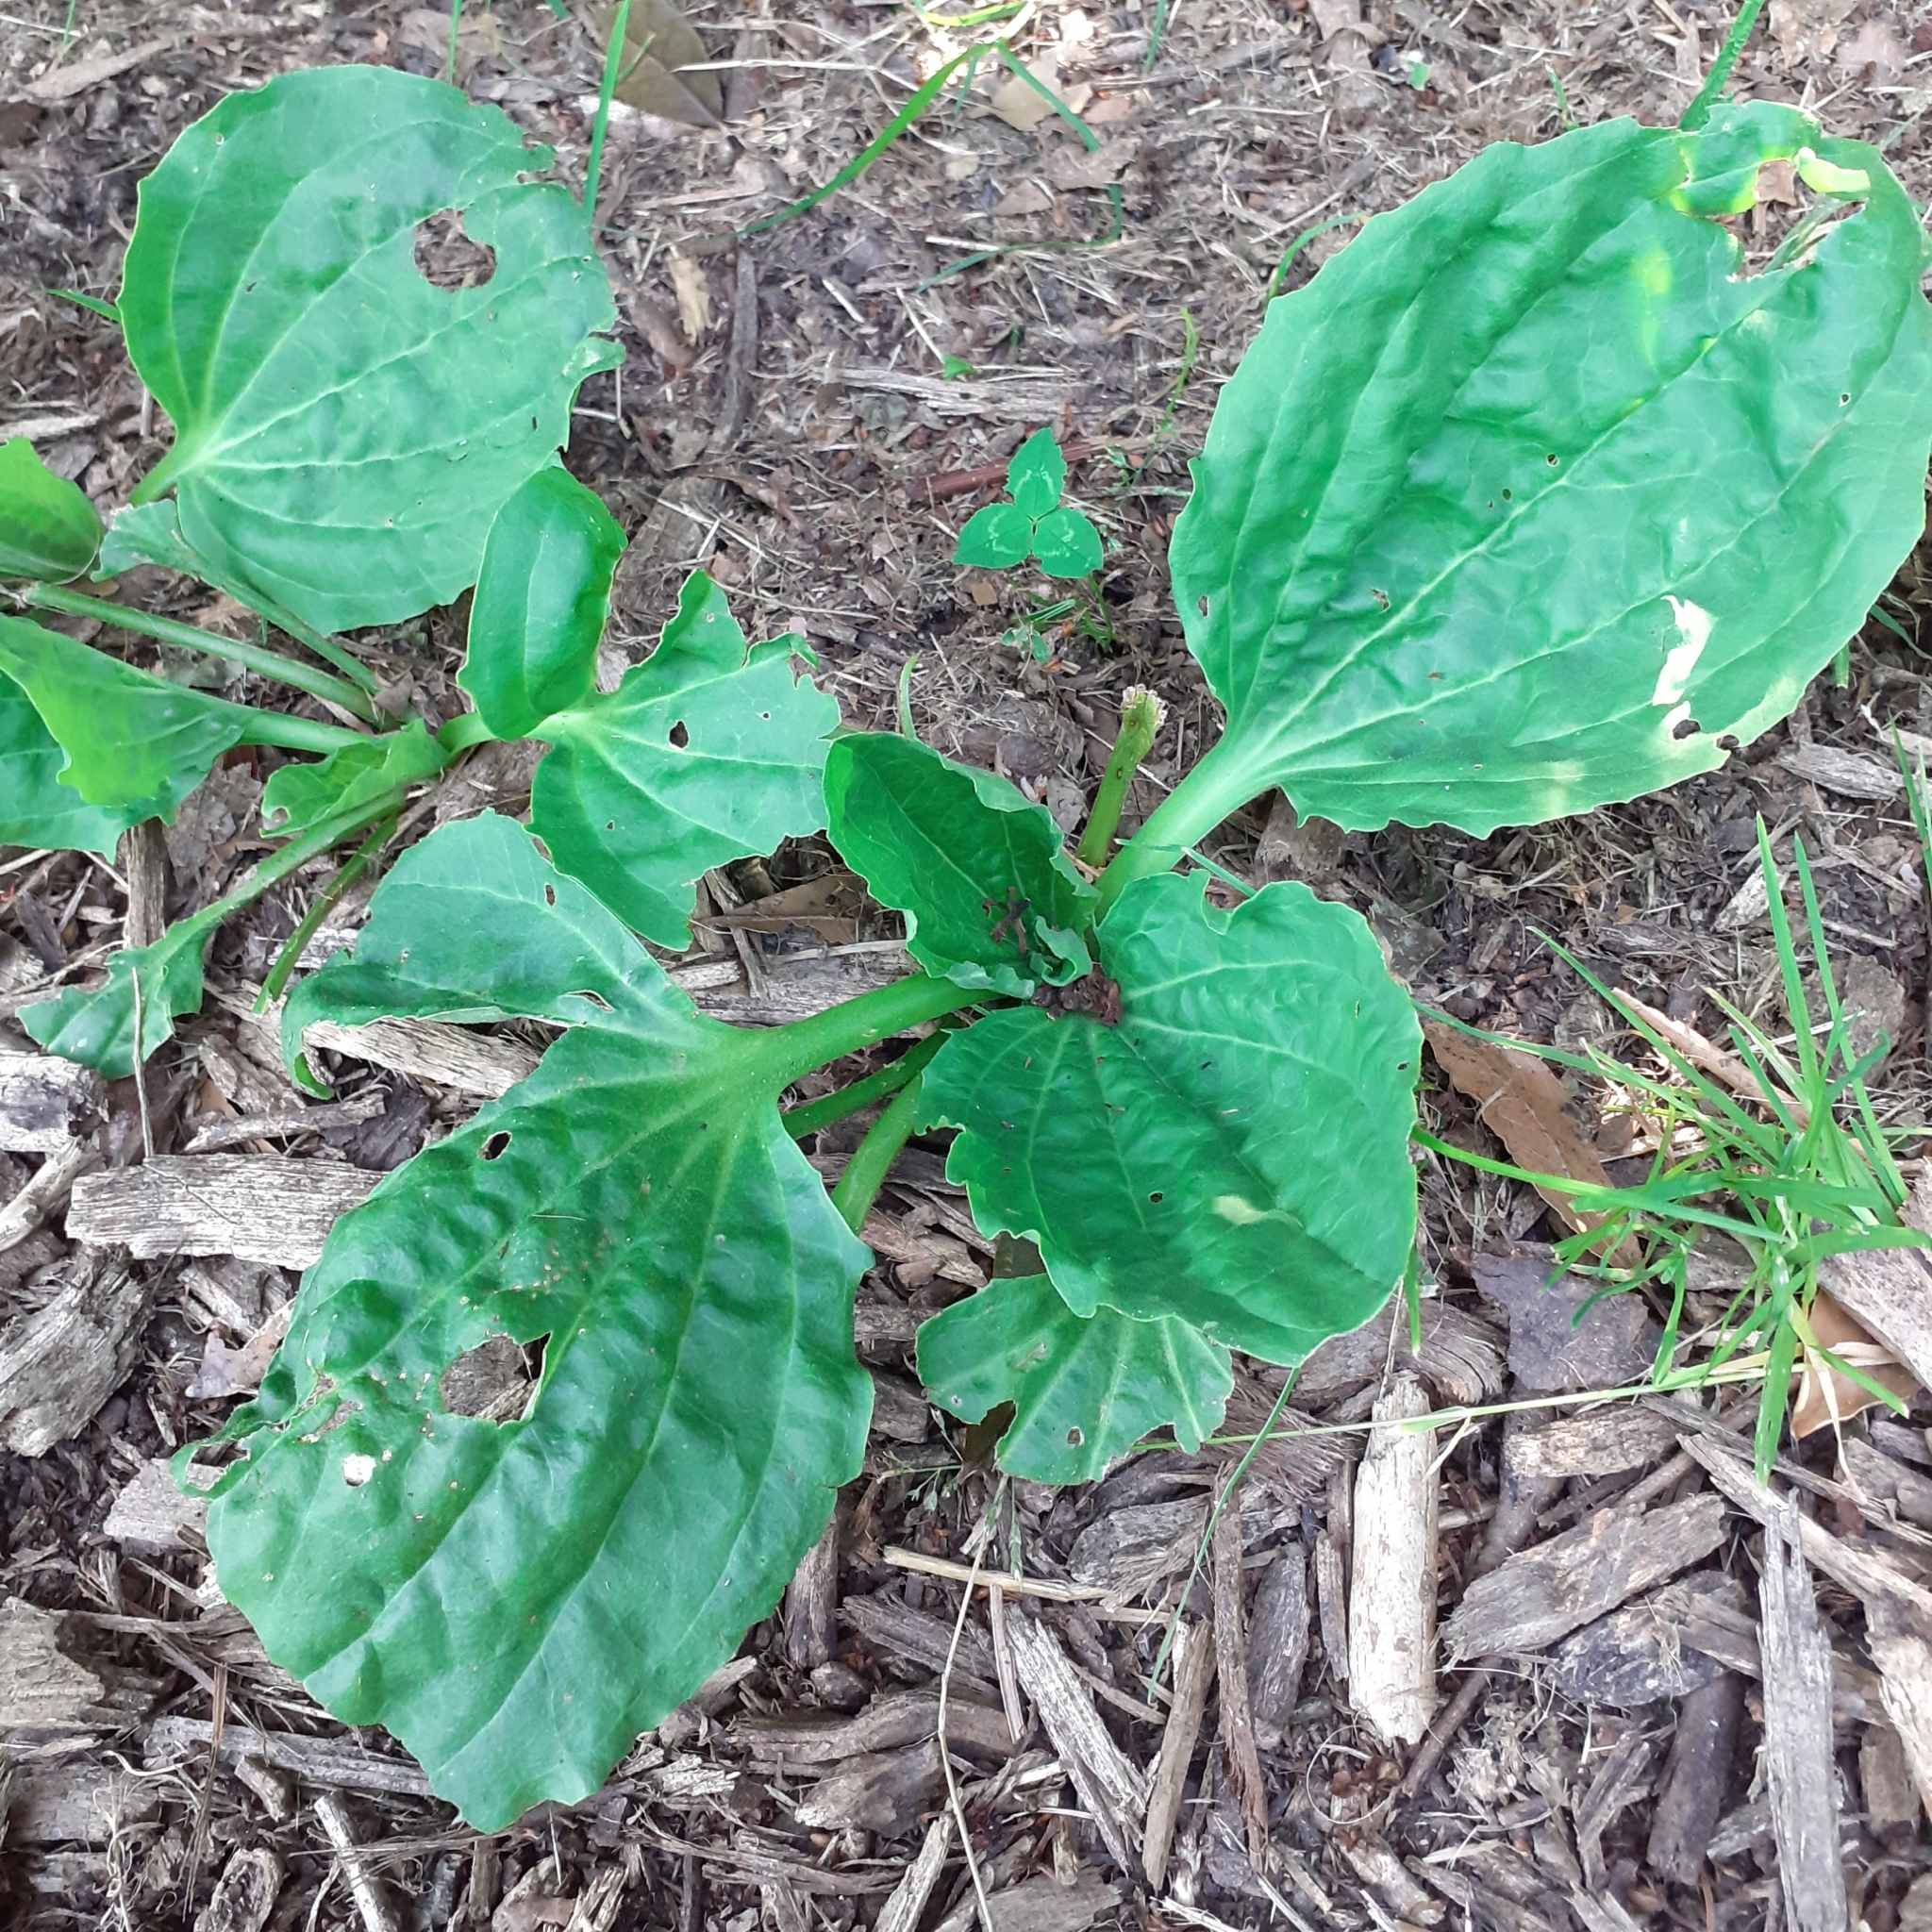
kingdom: Plantae
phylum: Tracheophyta
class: Magnoliopsida
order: Lamiales
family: Plantaginaceae
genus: Plantago
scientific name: Plantago major
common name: Common plantain
